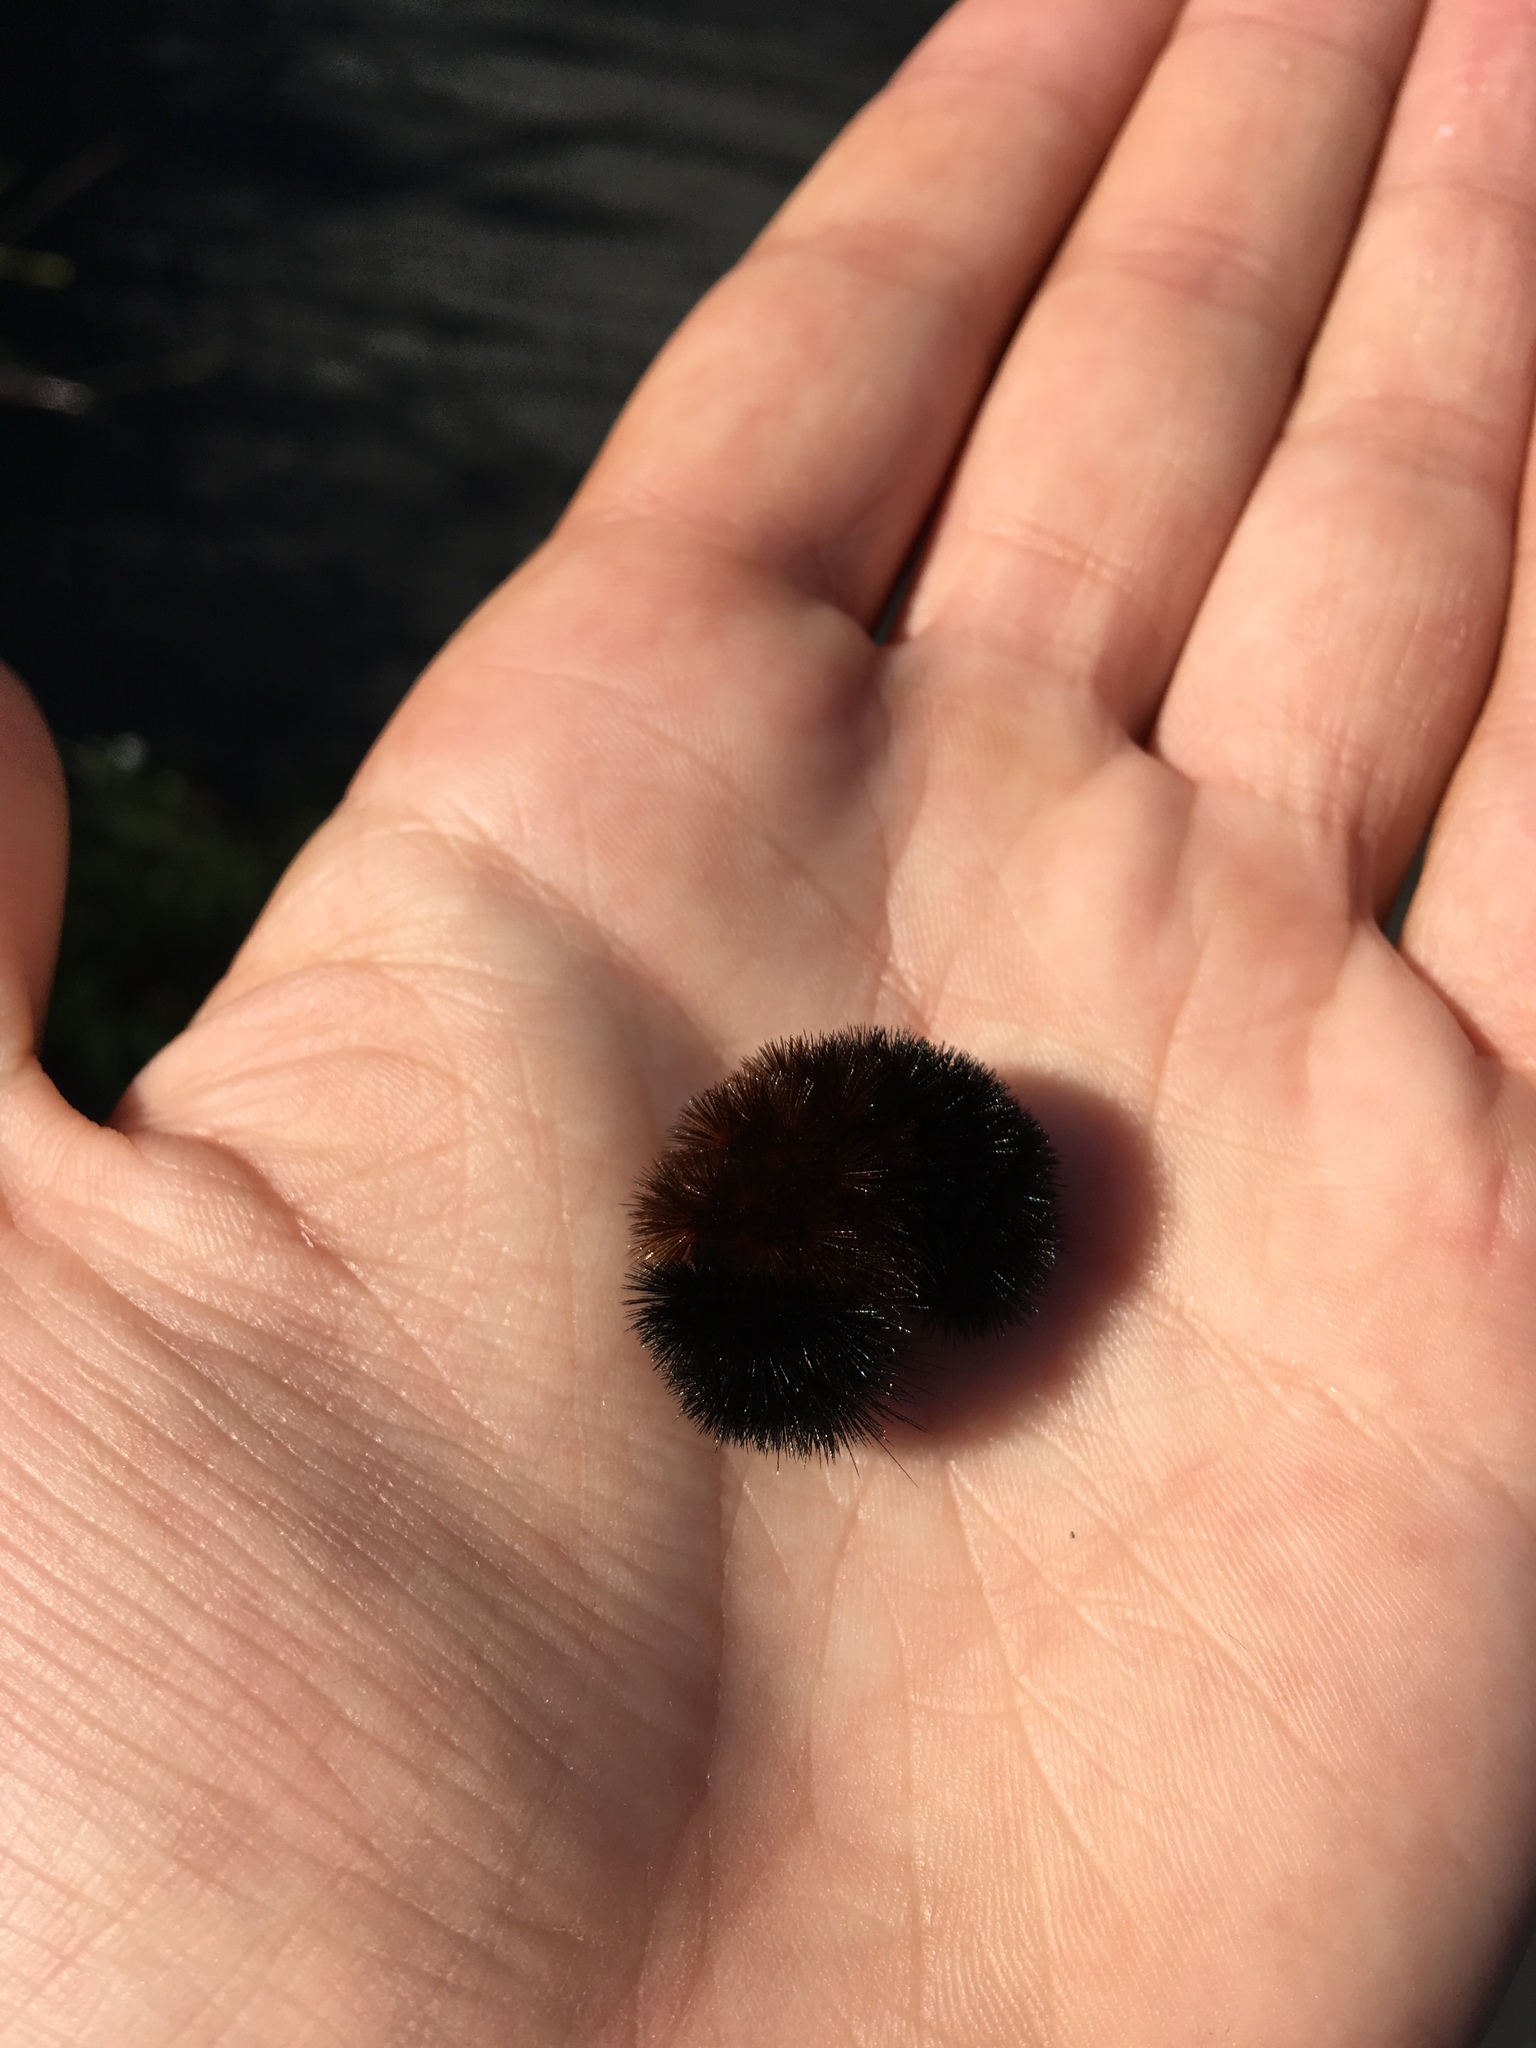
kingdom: Animalia
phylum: Arthropoda
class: Insecta
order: Lepidoptera
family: Erebidae
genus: Pyrrharctia
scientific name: Pyrrharctia isabella
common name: Isabella tiger moth
